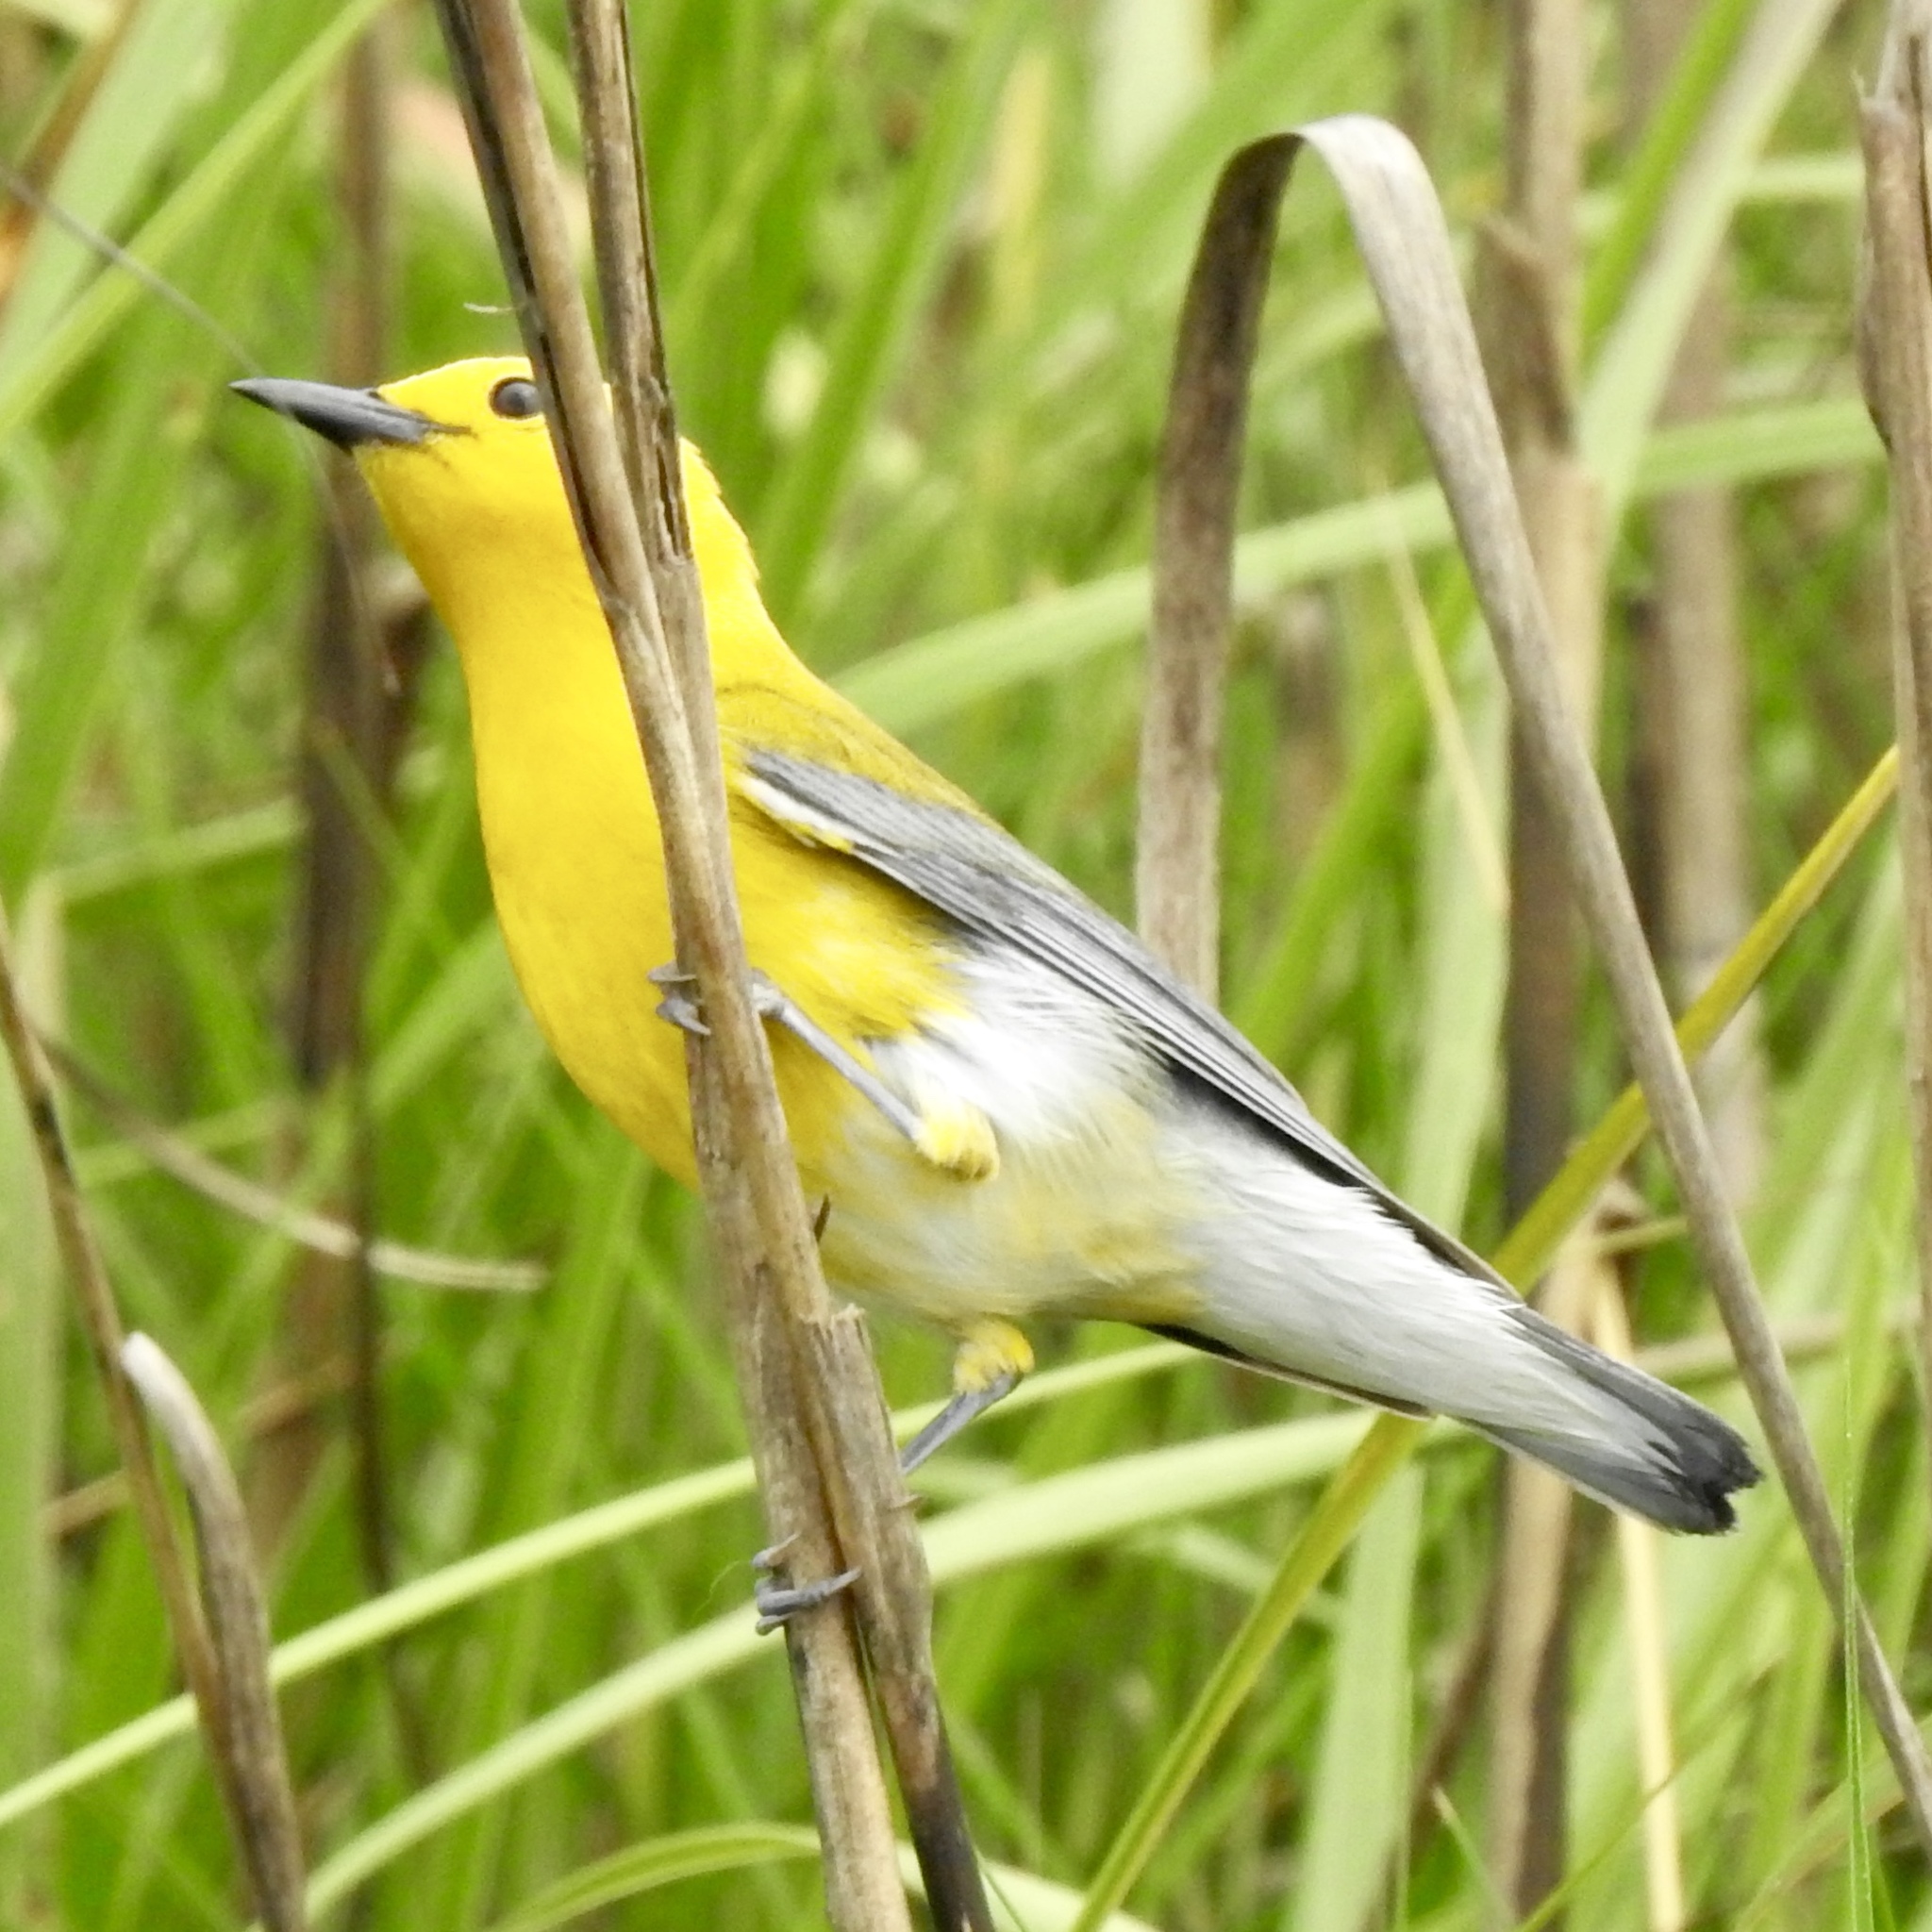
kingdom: Animalia
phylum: Chordata
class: Aves
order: Passeriformes
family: Parulidae
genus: Protonotaria
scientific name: Protonotaria citrea
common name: Prothonotary warbler
